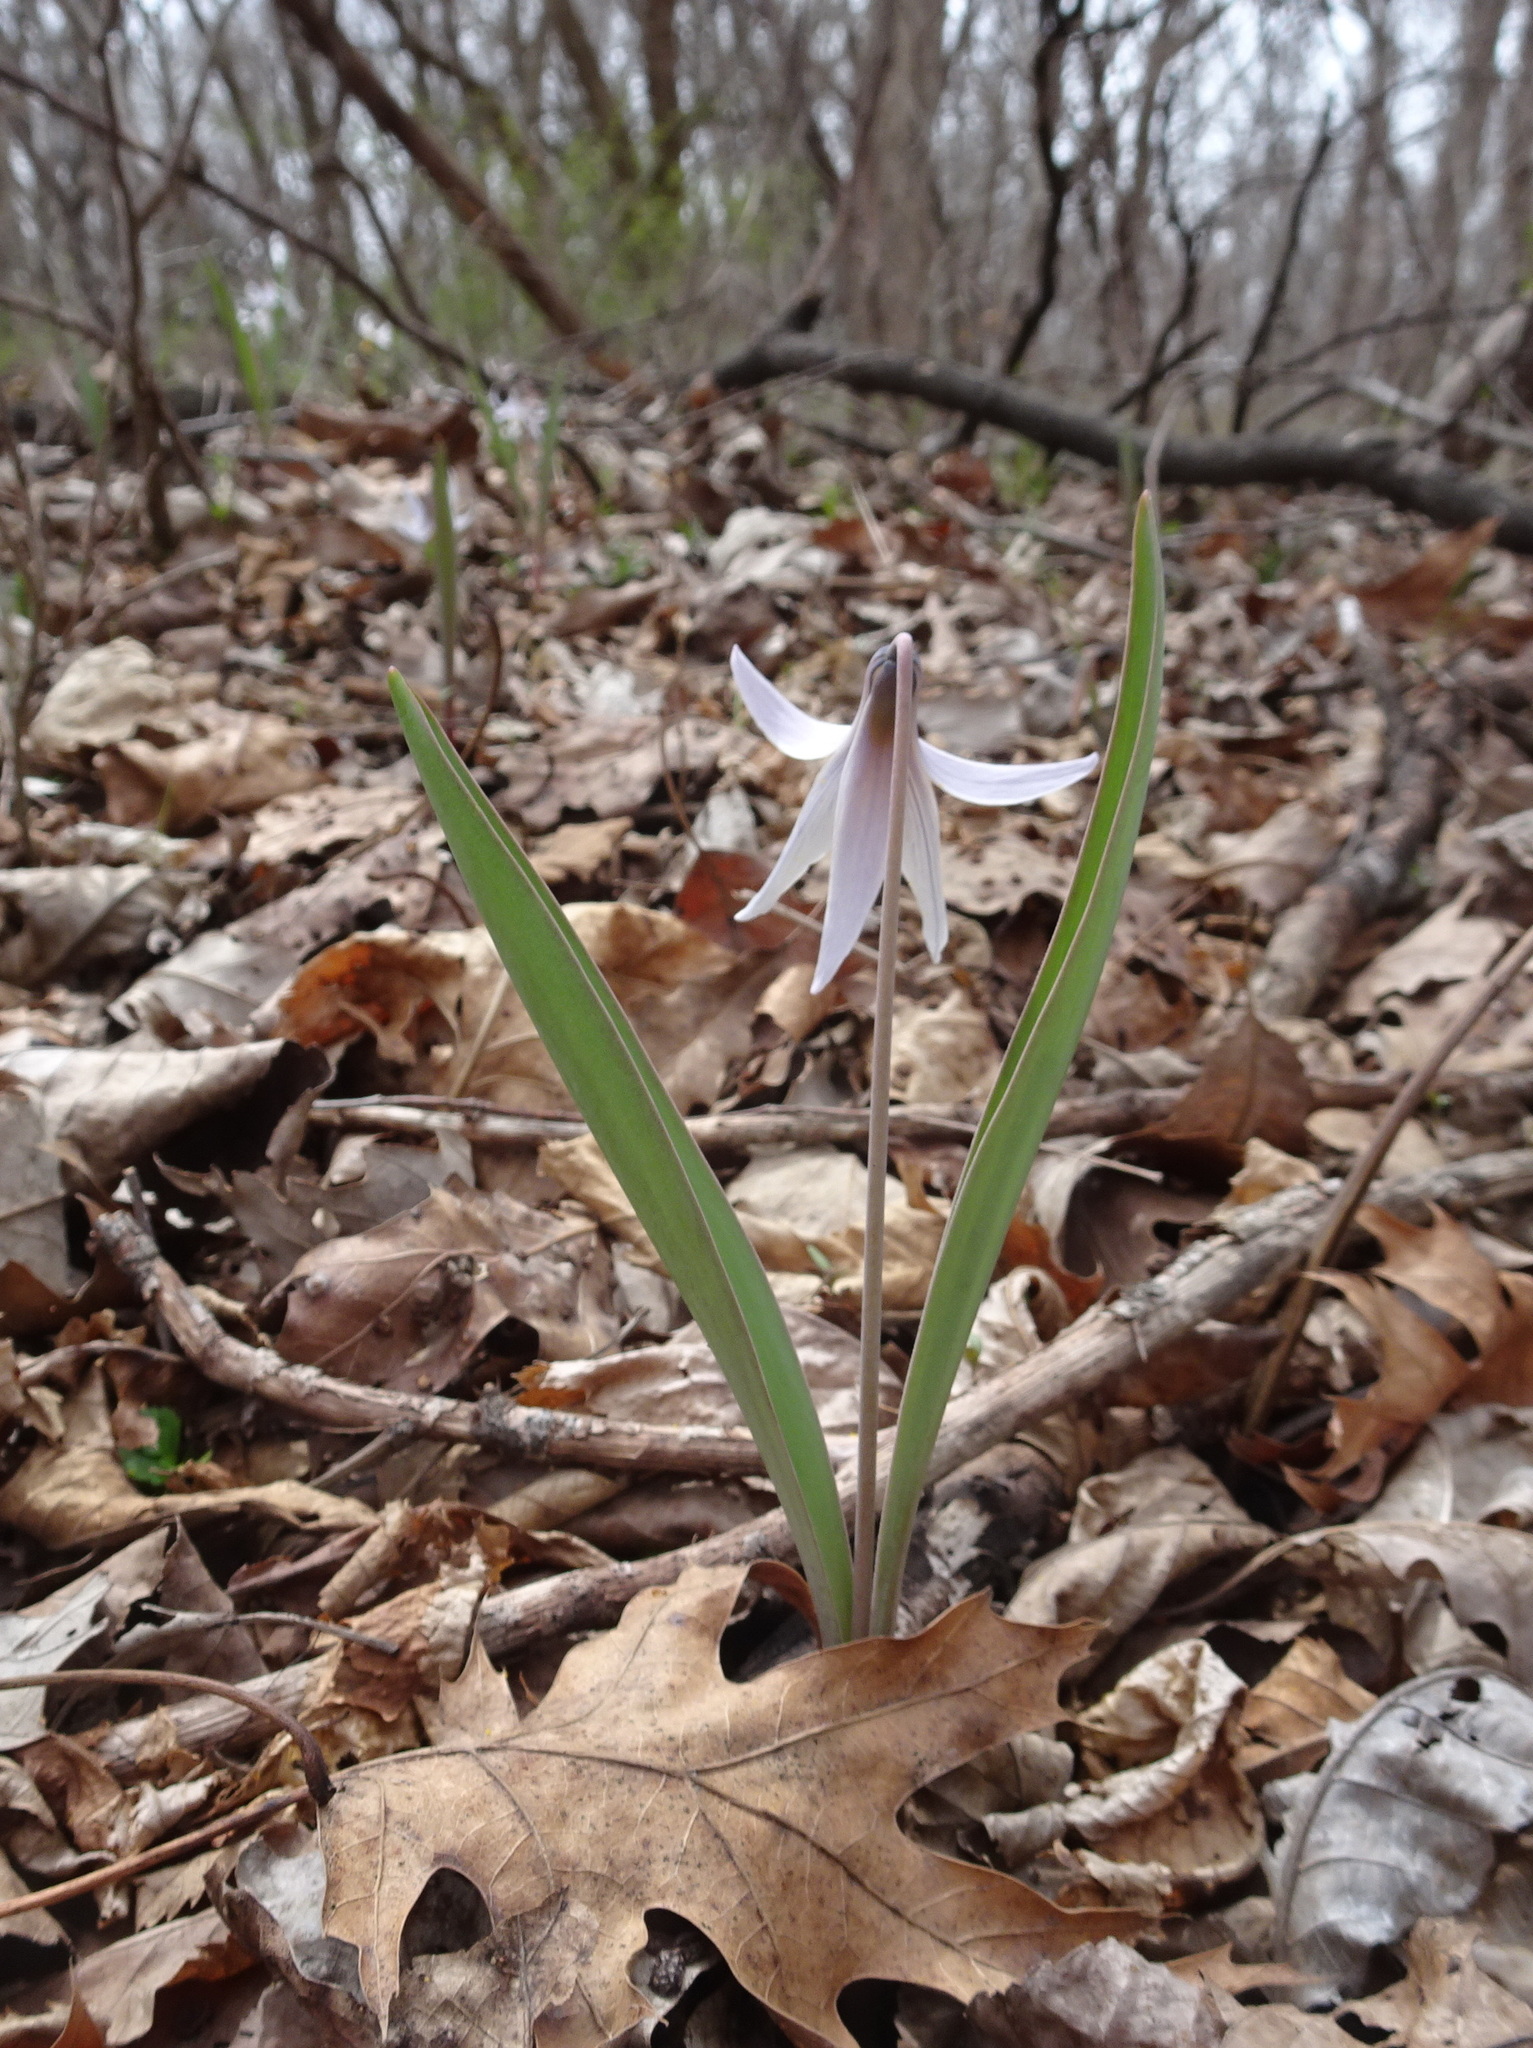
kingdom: Plantae
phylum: Tracheophyta
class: Liliopsida
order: Liliales
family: Liliaceae
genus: Erythronium
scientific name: Erythronium mesochoreum
